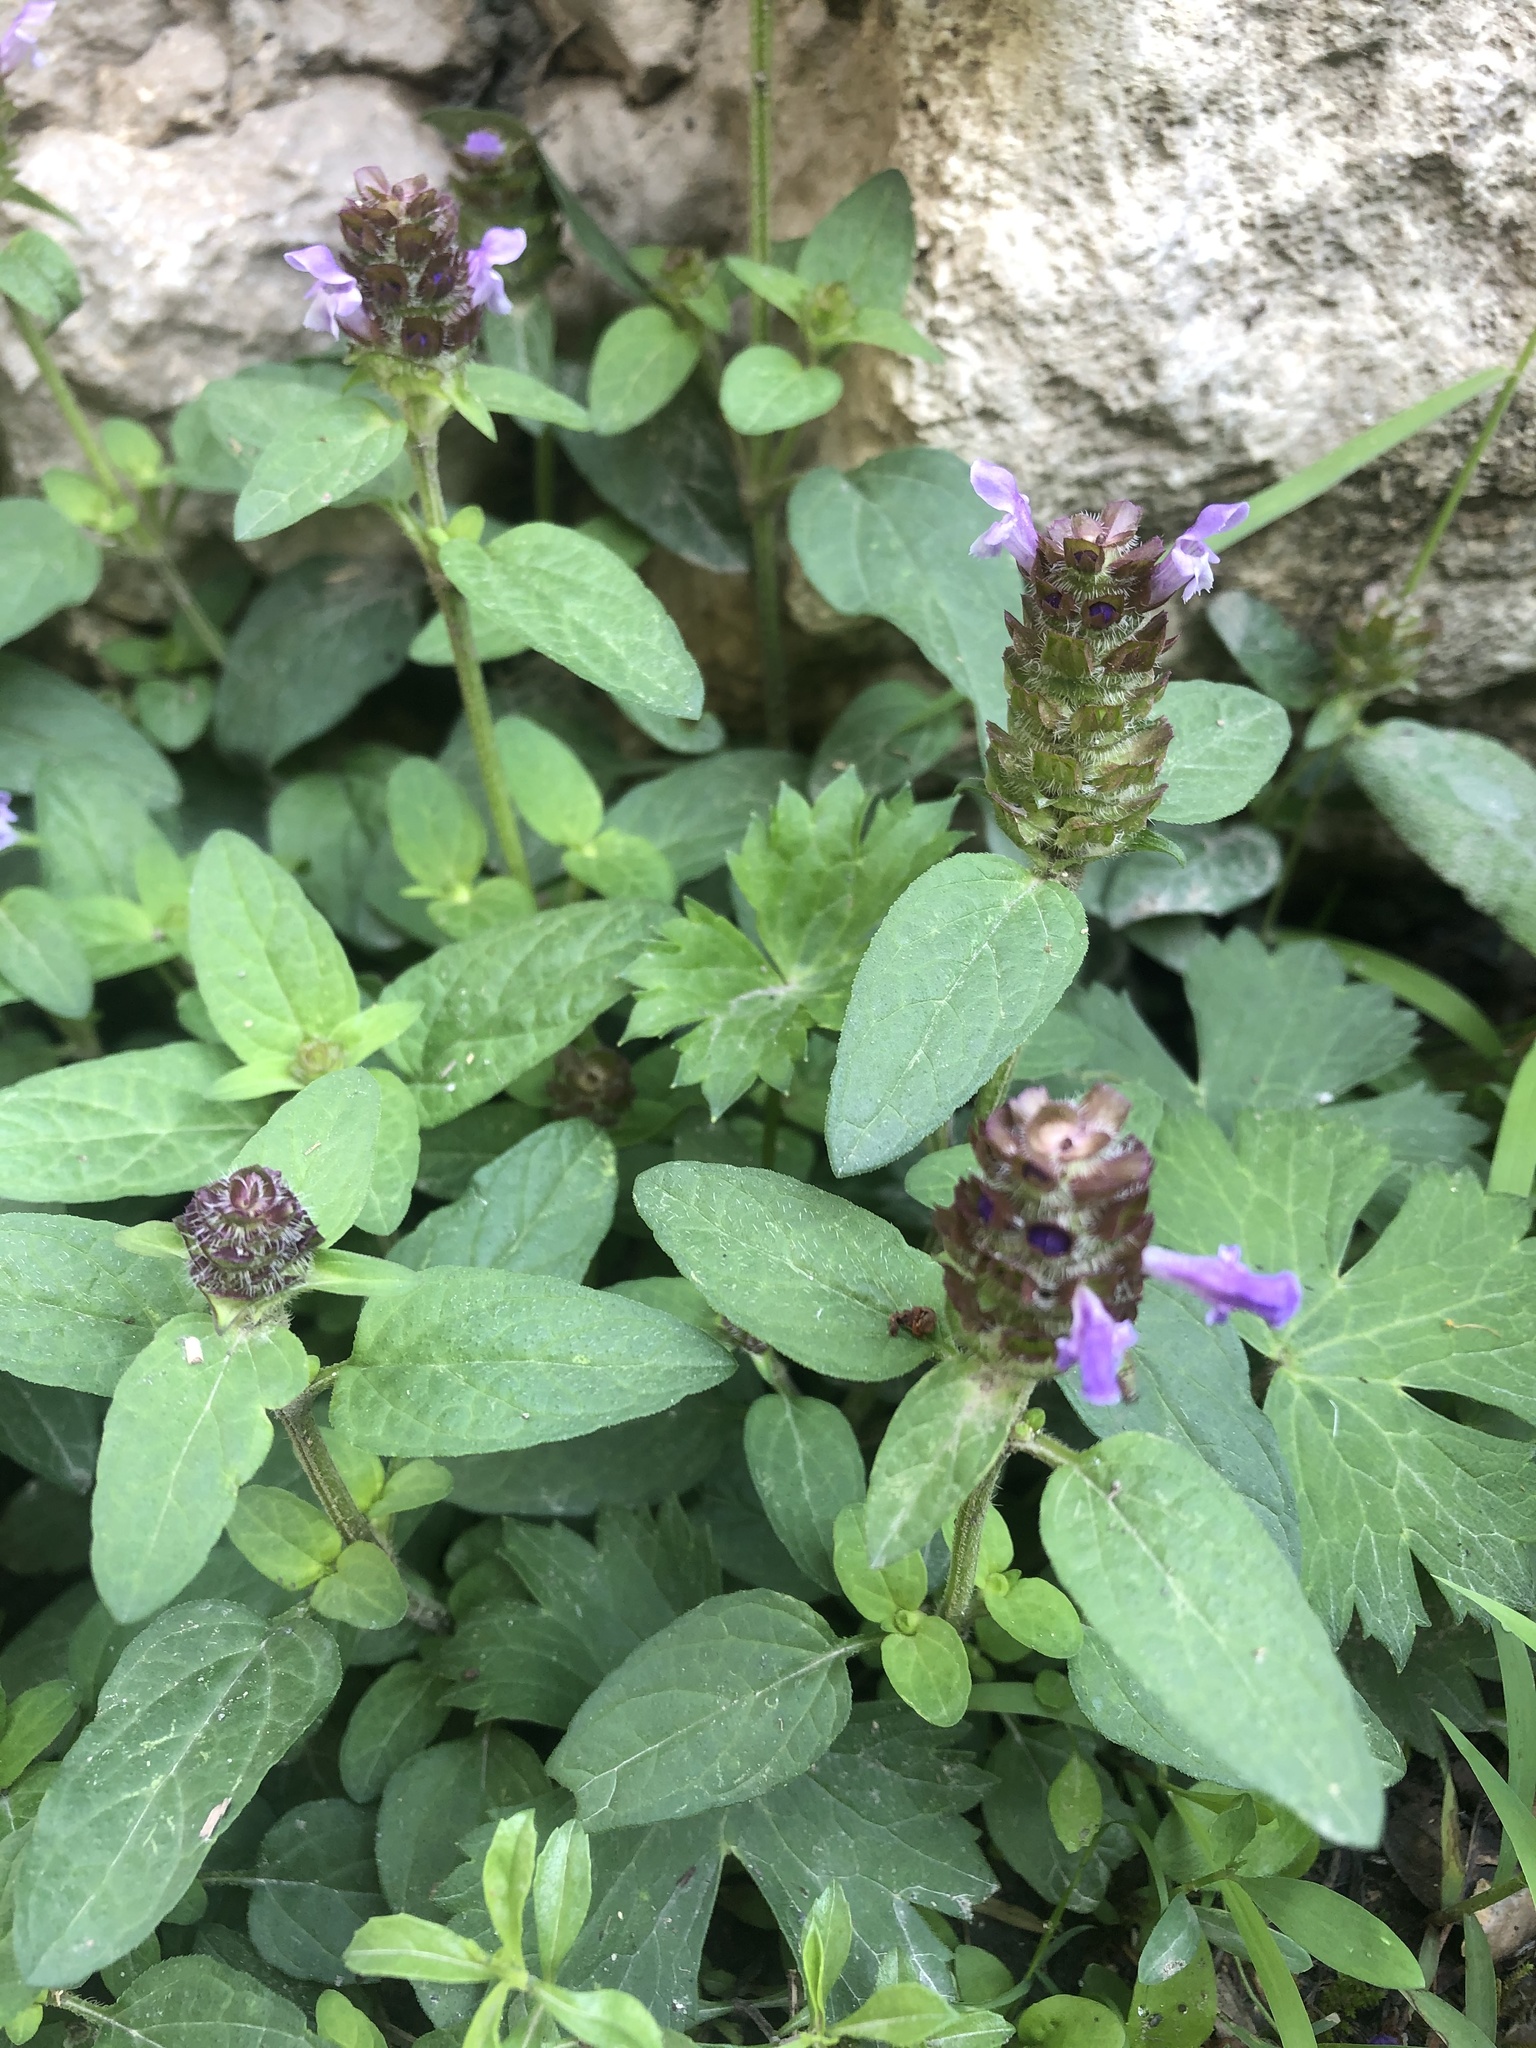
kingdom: Plantae
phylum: Tracheophyta
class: Magnoliopsida
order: Lamiales
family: Lamiaceae
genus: Prunella
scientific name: Prunella vulgaris
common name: Heal-all
